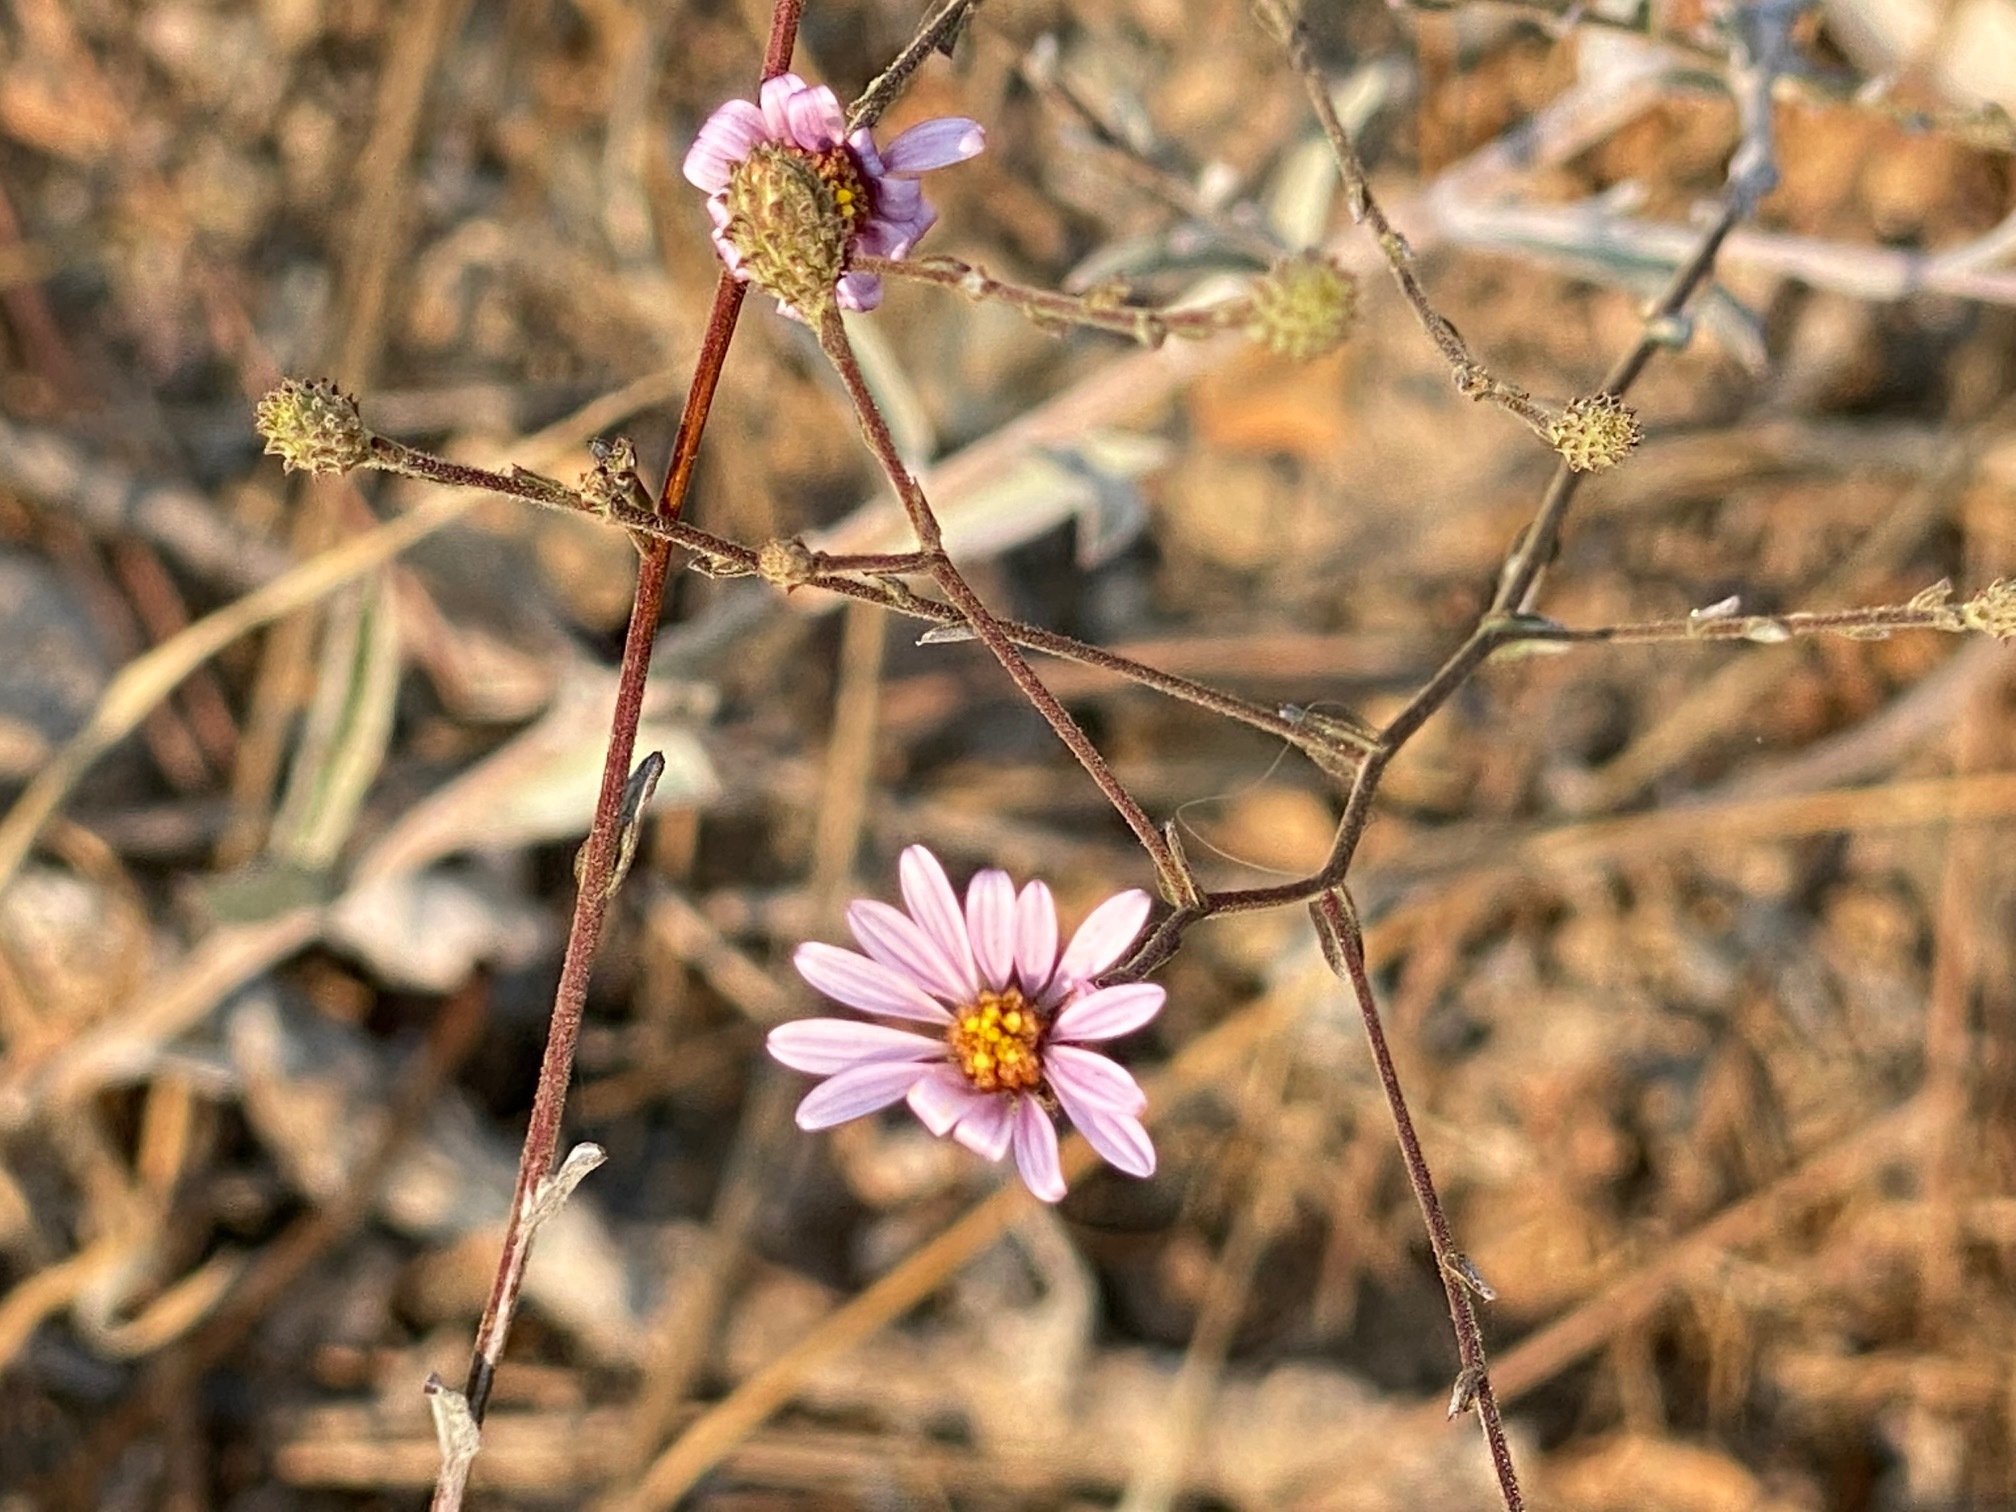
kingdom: Plantae
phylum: Tracheophyta
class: Magnoliopsida
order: Asterales
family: Asteraceae
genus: Corethrogyne
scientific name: Corethrogyne filaginifolia
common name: Sand-aster
